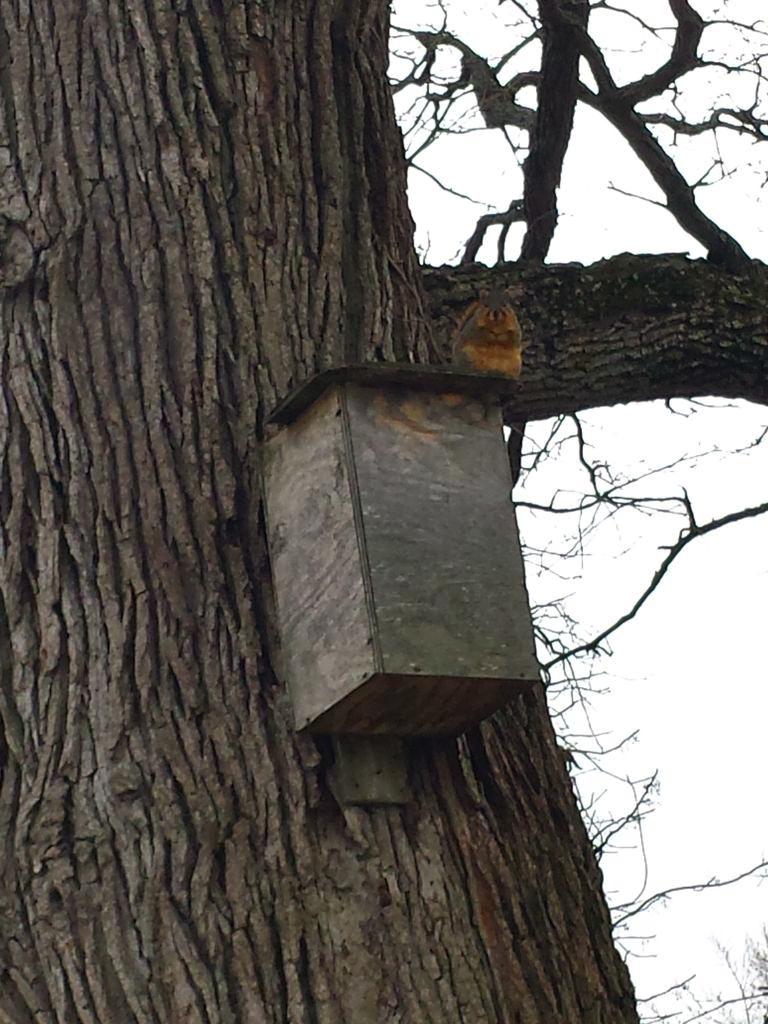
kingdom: Animalia
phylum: Chordata
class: Mammalia
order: Rodentia
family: Sciuridae
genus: Sciurus
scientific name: Sciurus niger
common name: Fox squirrel
